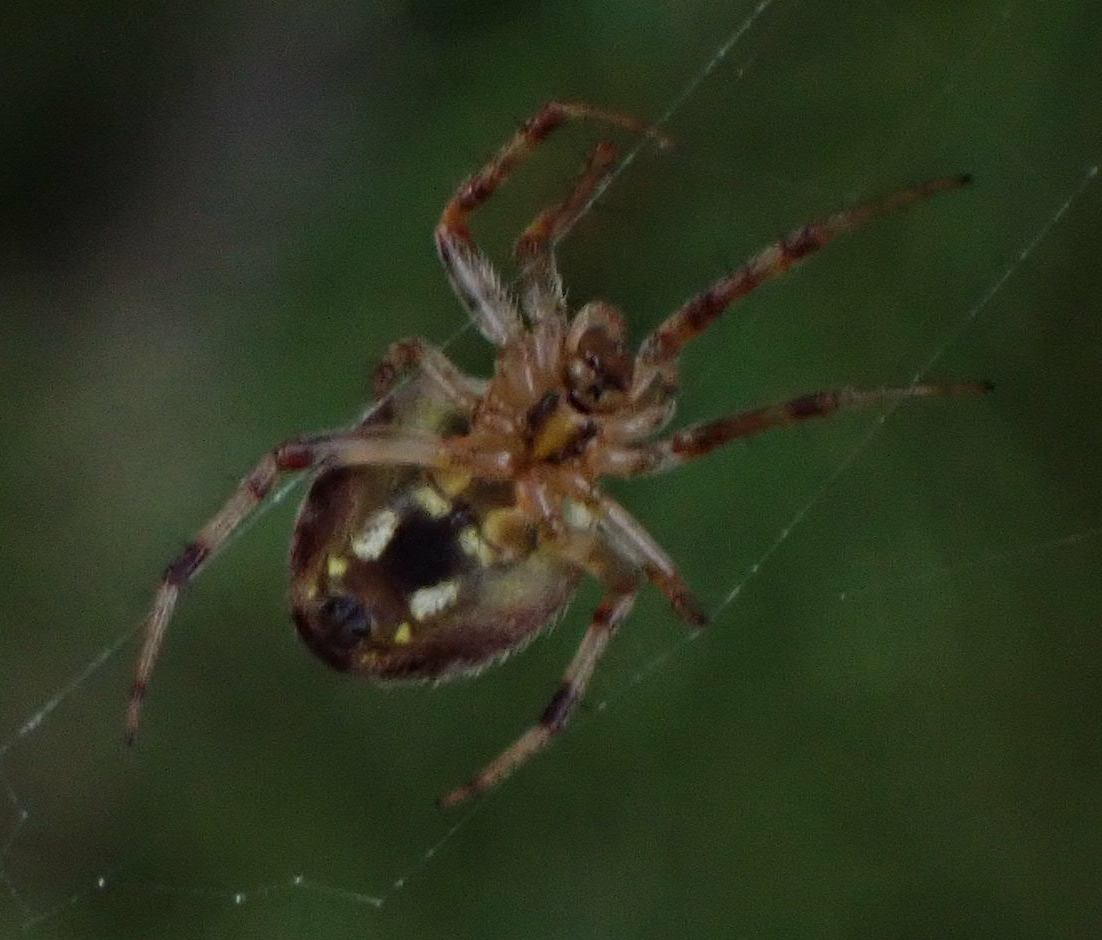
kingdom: Animalia
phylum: Arthropoda
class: Arachnida
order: Araneae
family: Araneidae
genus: Neoscona
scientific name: Neoscona arabesca
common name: Orb weavers
